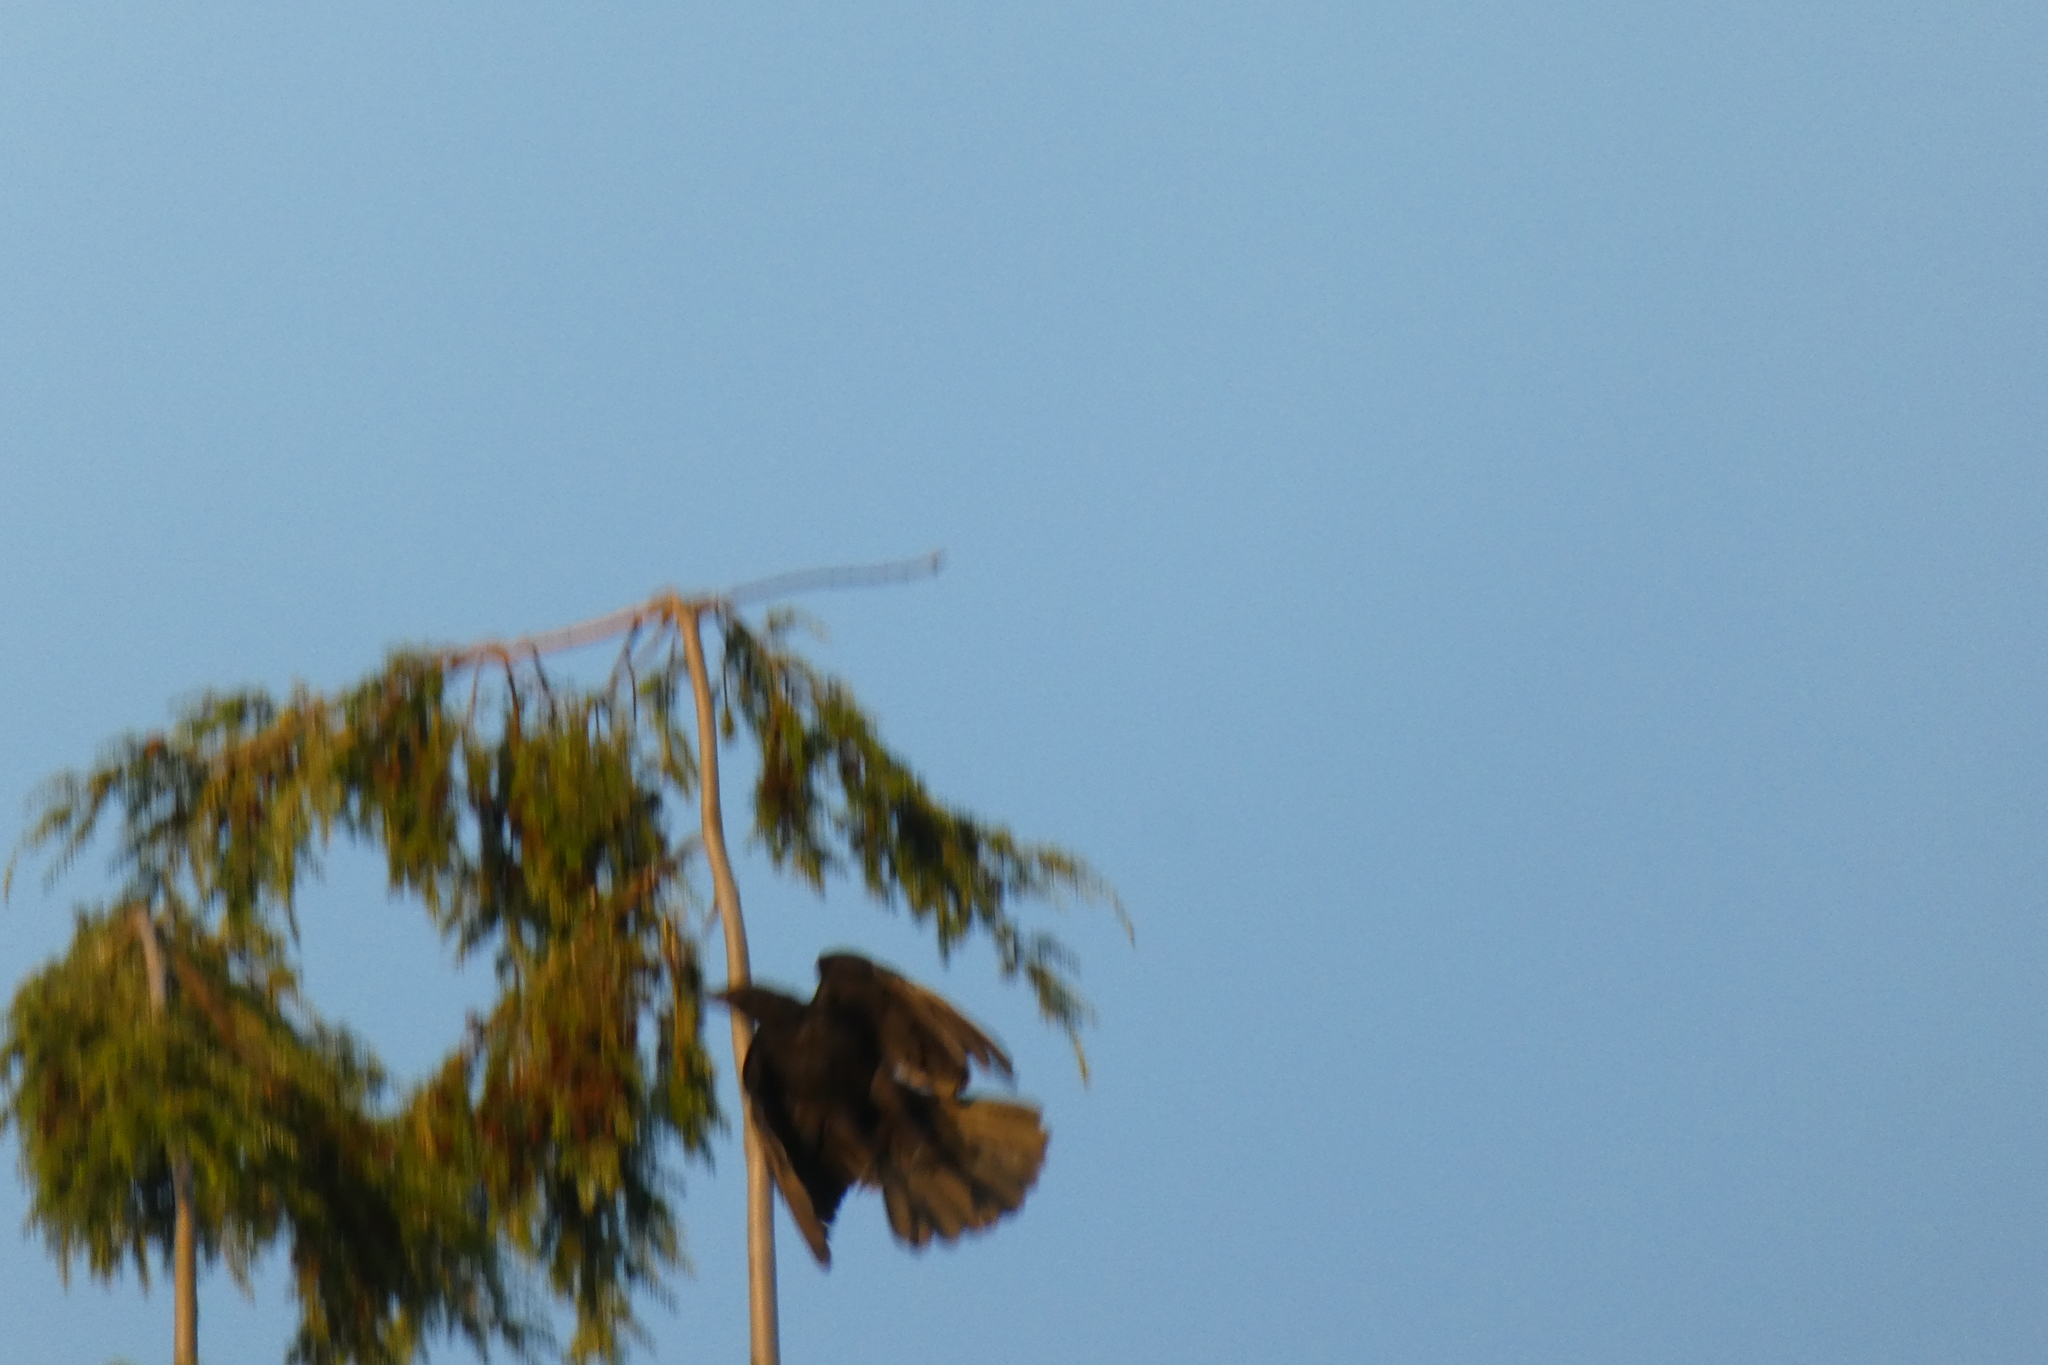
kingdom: Animalia
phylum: Chordata
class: Aves
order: Passeriformes
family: Corvidae
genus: Corvus
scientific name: Corvus brachyrhynchos
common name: American crow
